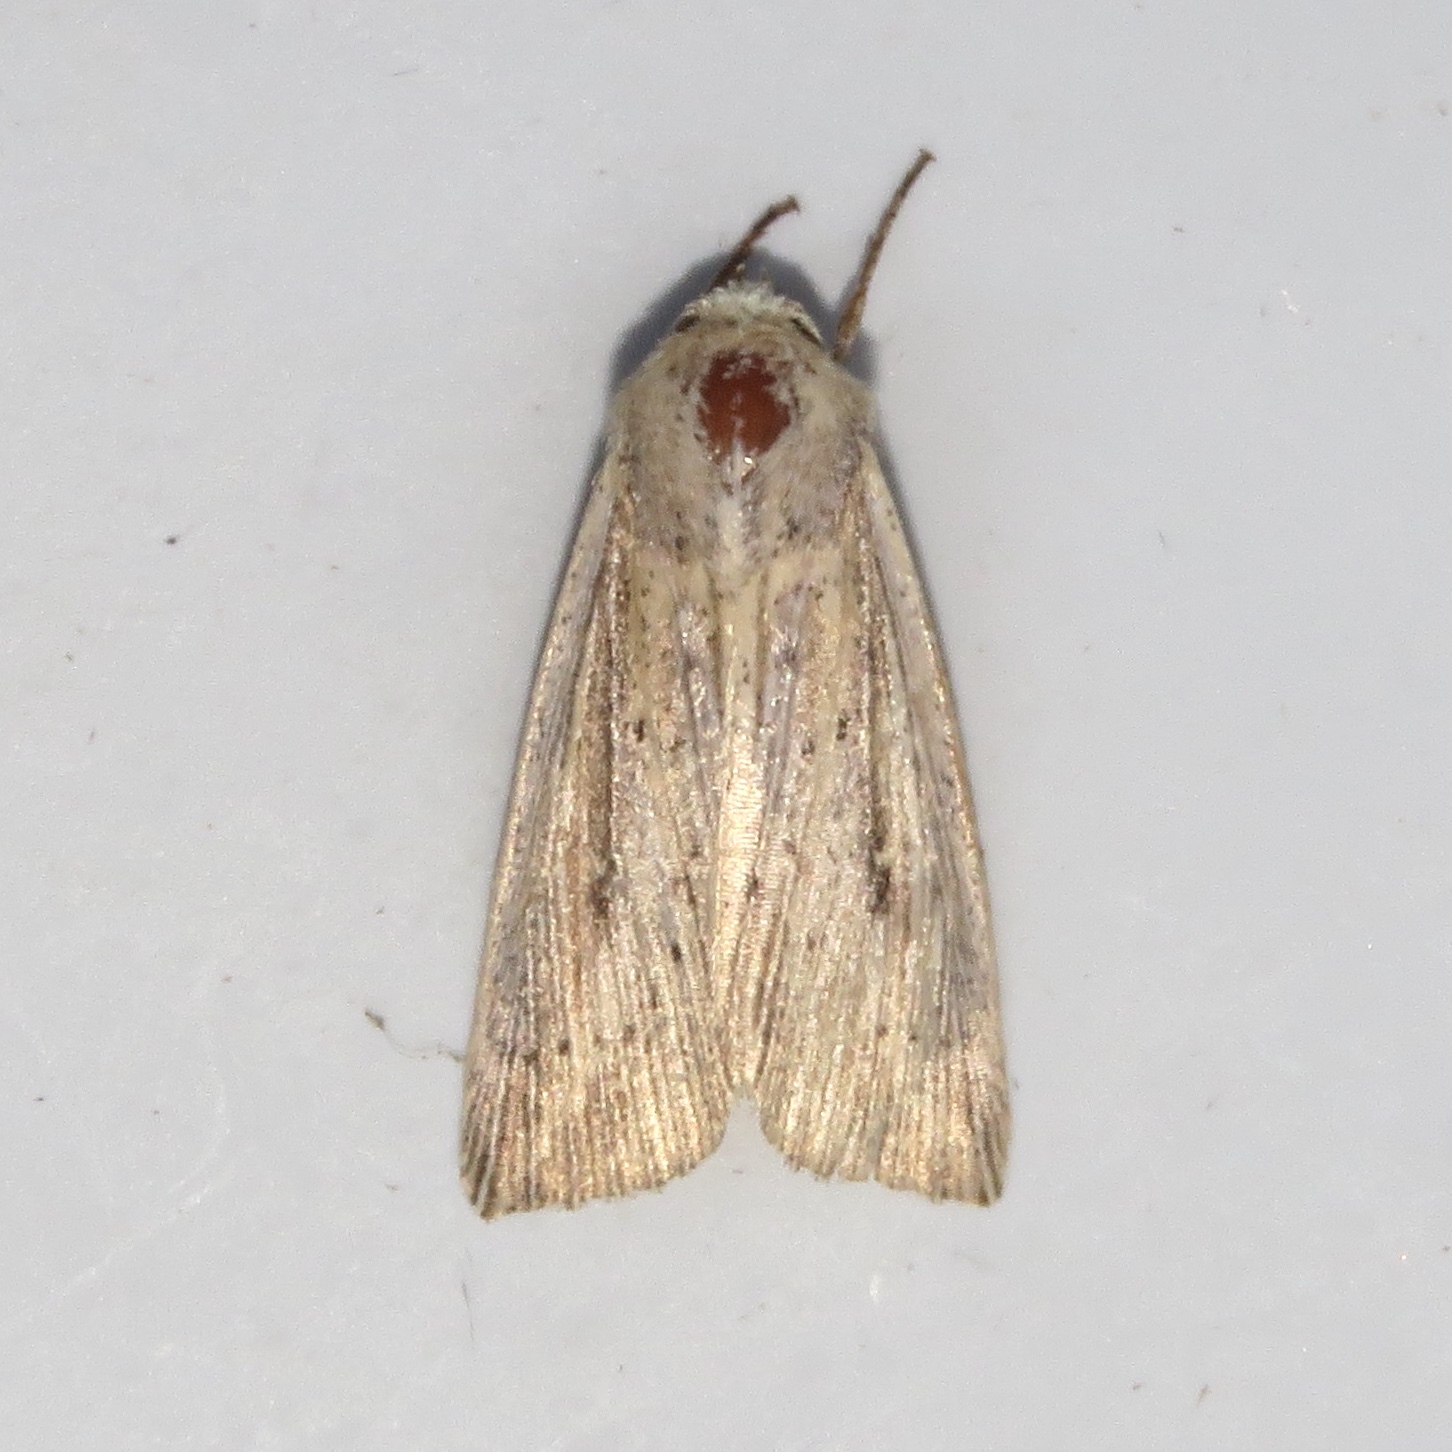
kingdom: Animalia
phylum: Arthropoda
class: Insecta
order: Lepidoptera
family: Noctuidae
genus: Leucania
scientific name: Leucania linita
